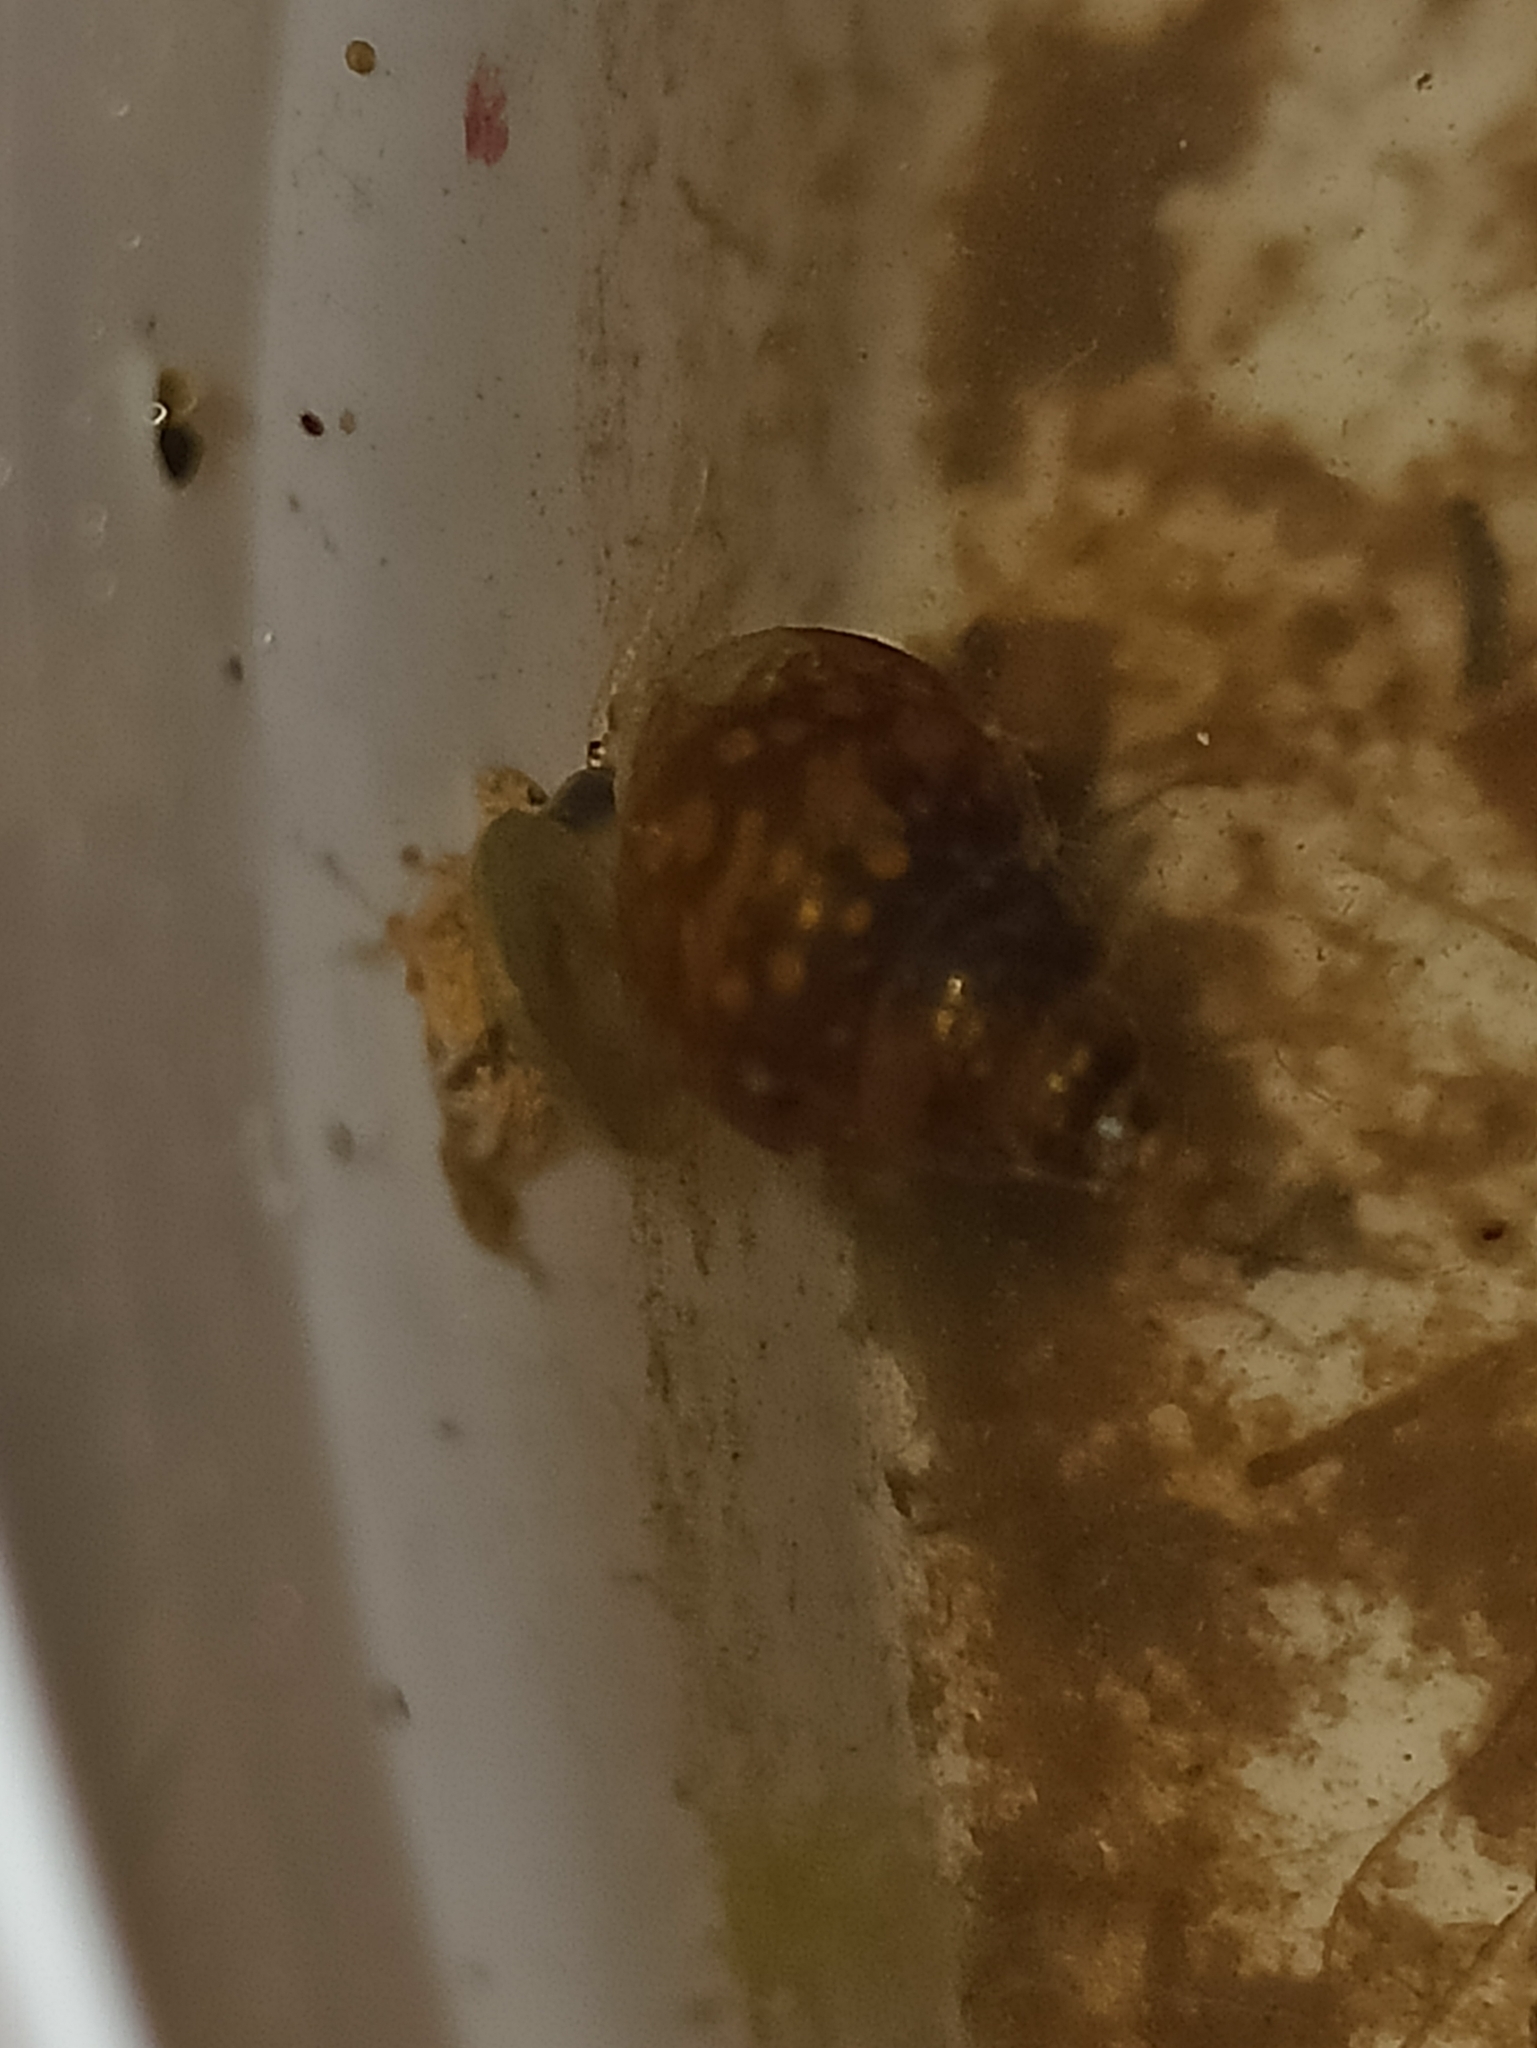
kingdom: Animalia
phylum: Mollusca
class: Gastropoda
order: Littorinimorpha
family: Bithyniidae
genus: Bithynia
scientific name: Bithynia tentaculata
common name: Common bithynia
